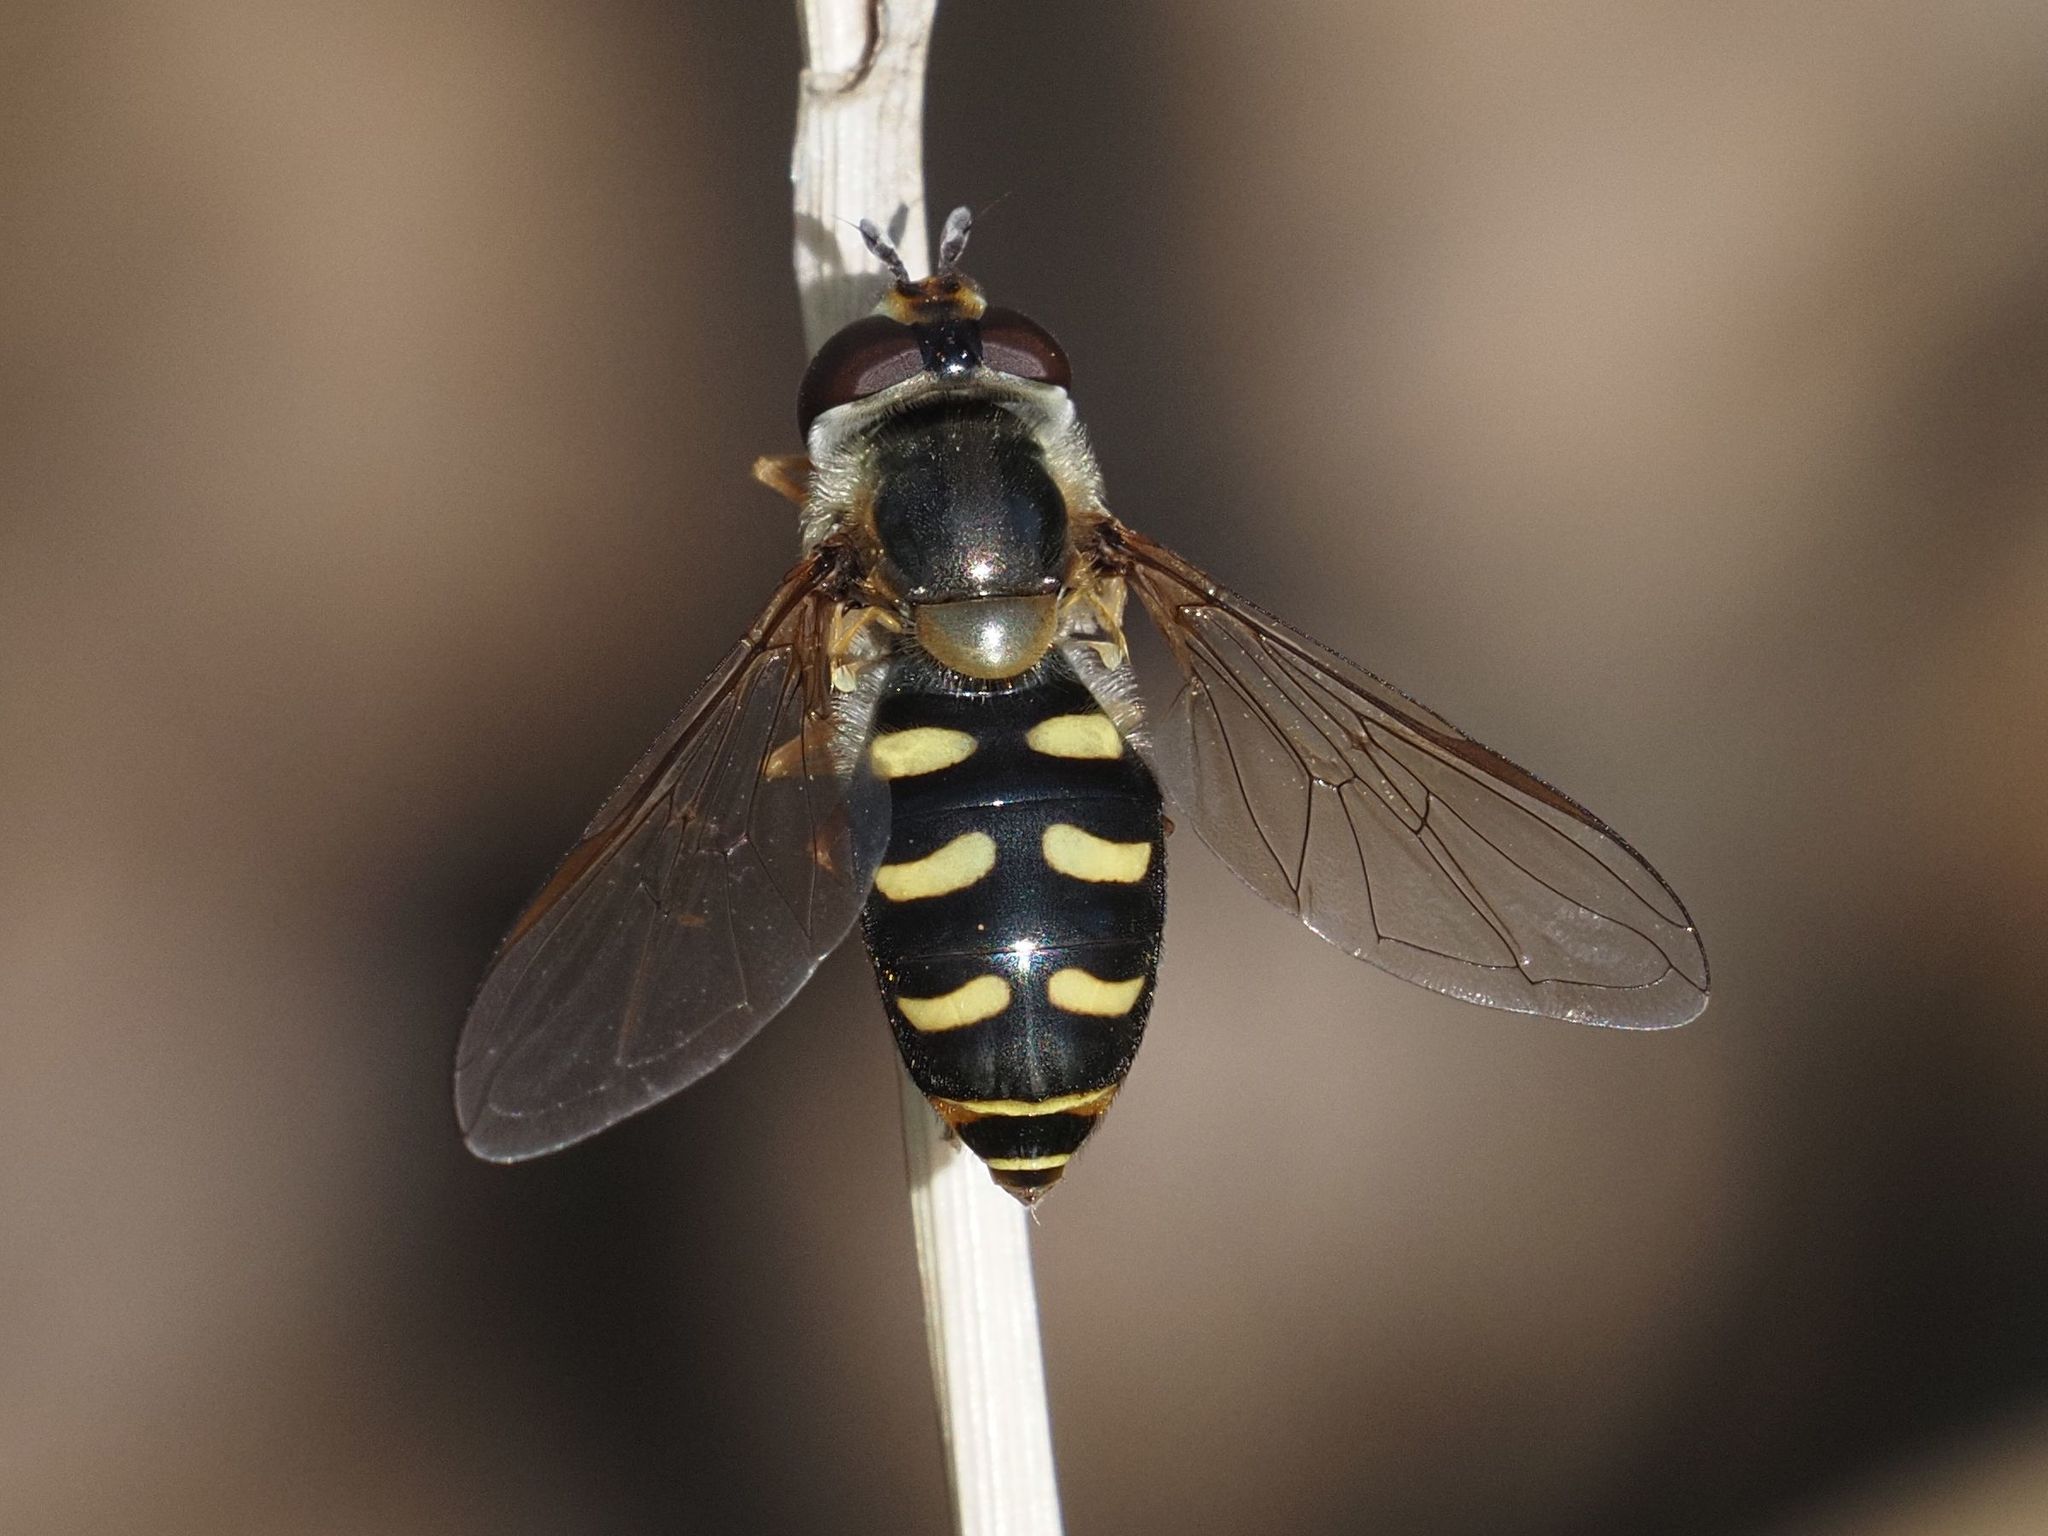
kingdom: Animalia
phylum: Arthropoda
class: Insecta
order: Diptera
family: Syrphidae
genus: Eupeodes
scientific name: Eupeodes luniger
